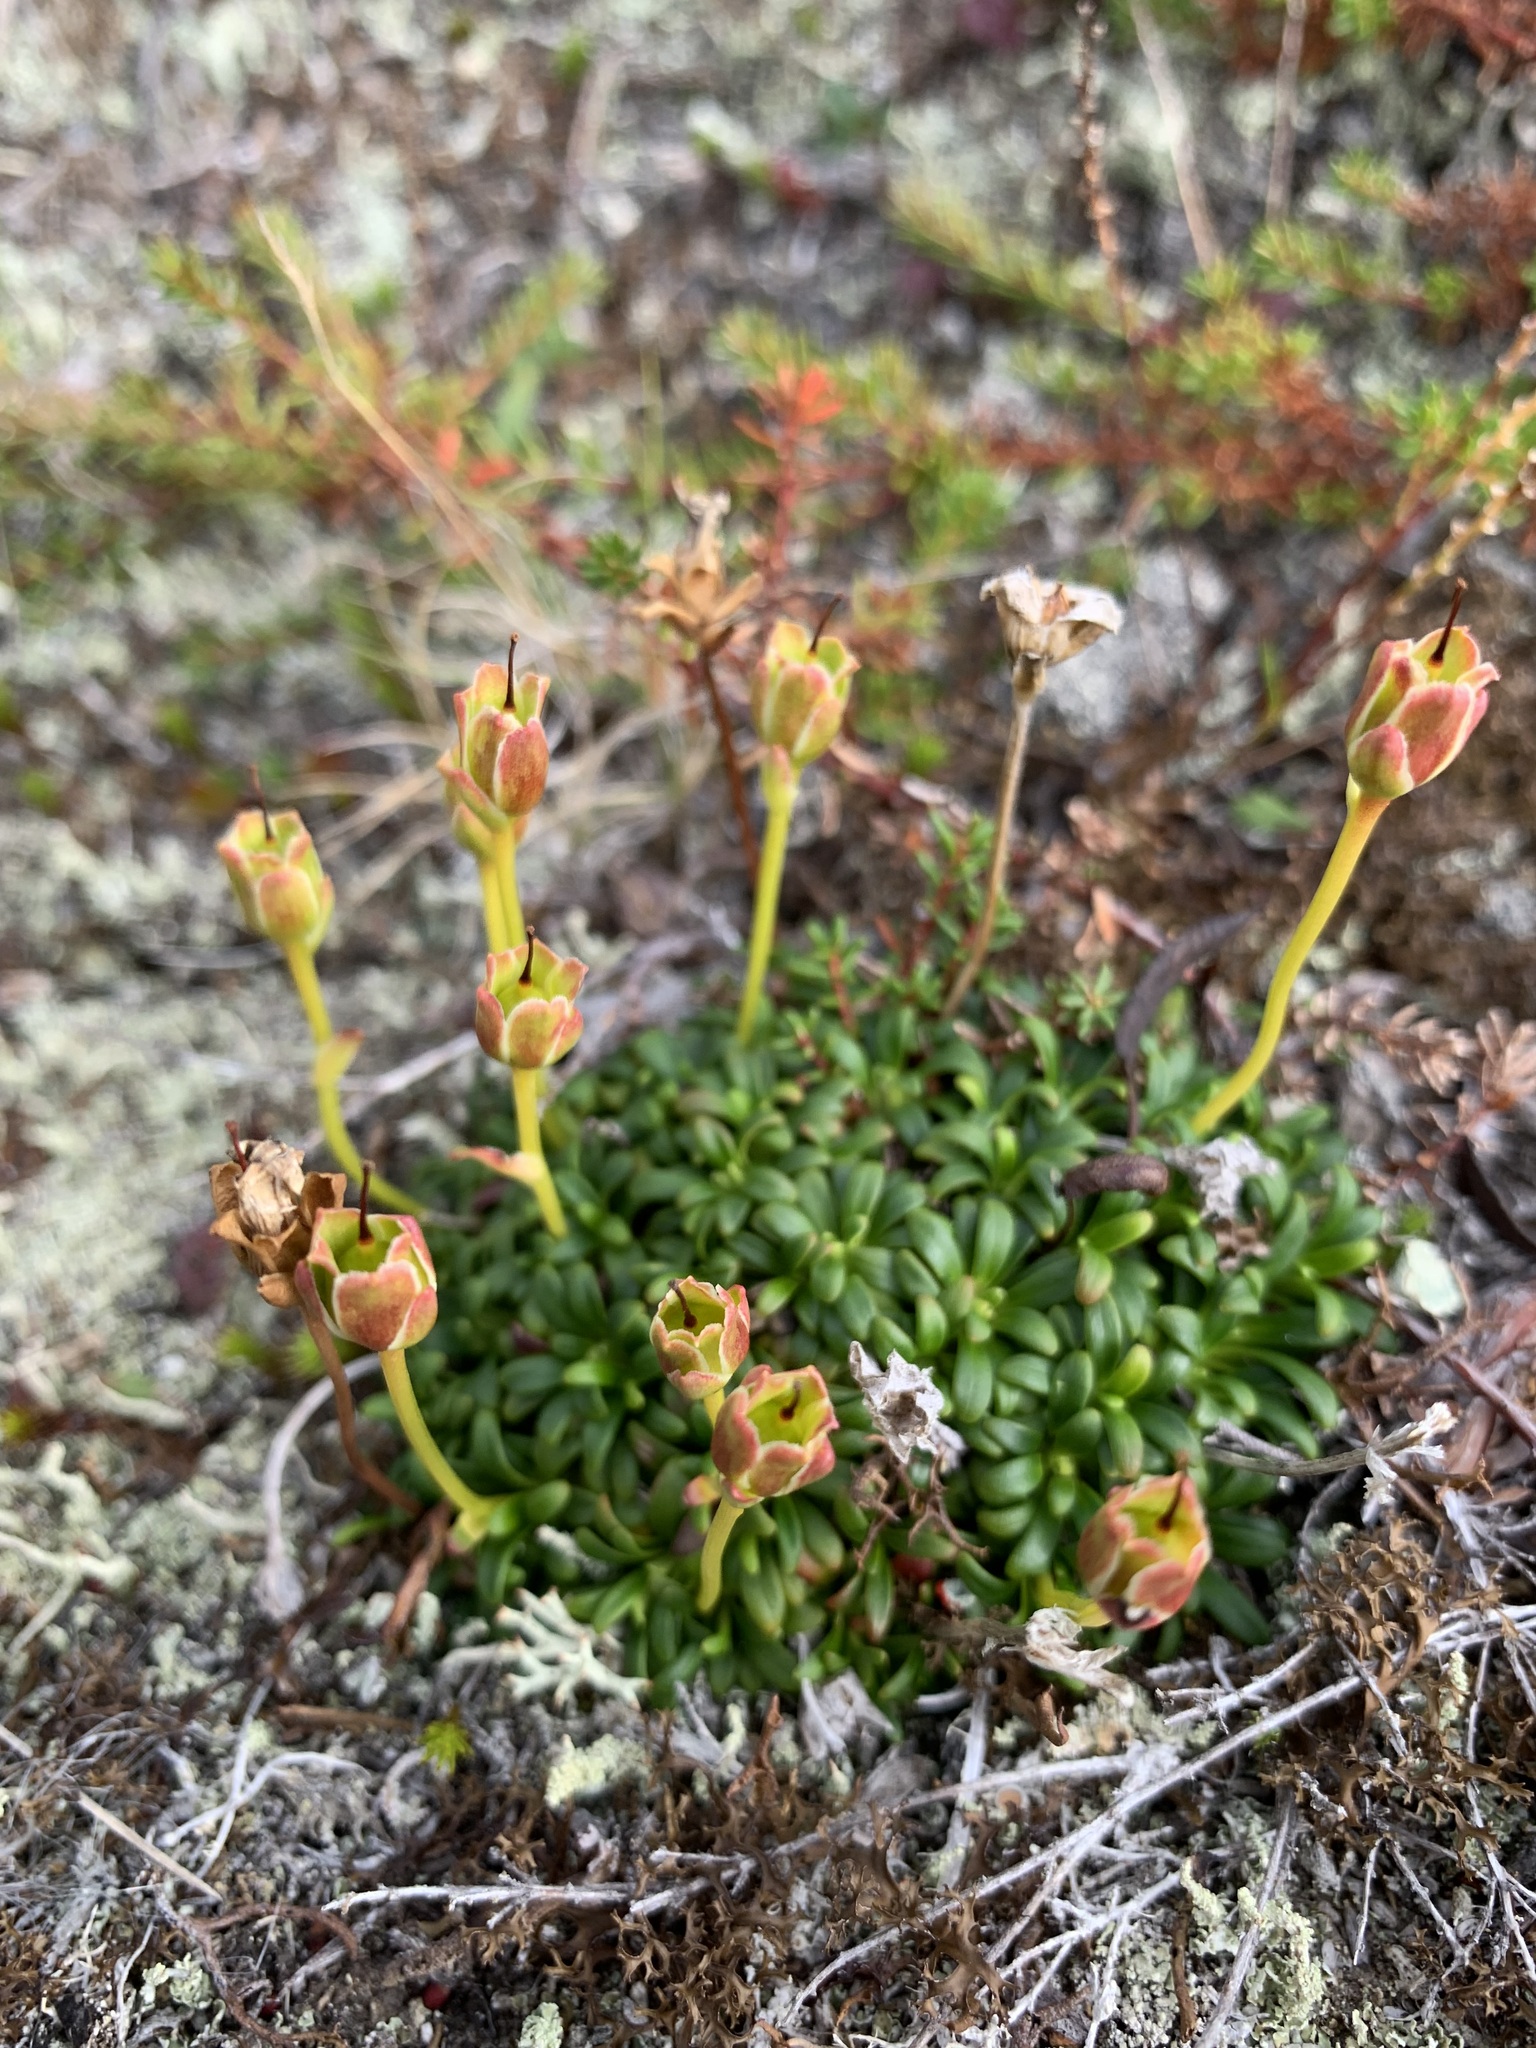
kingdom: Plantae
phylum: Tracheophyta
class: Magnoliopsida
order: Ericales
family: Diapensiaceae
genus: Diapensia
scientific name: Diapensia lapponica
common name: Diapensia
